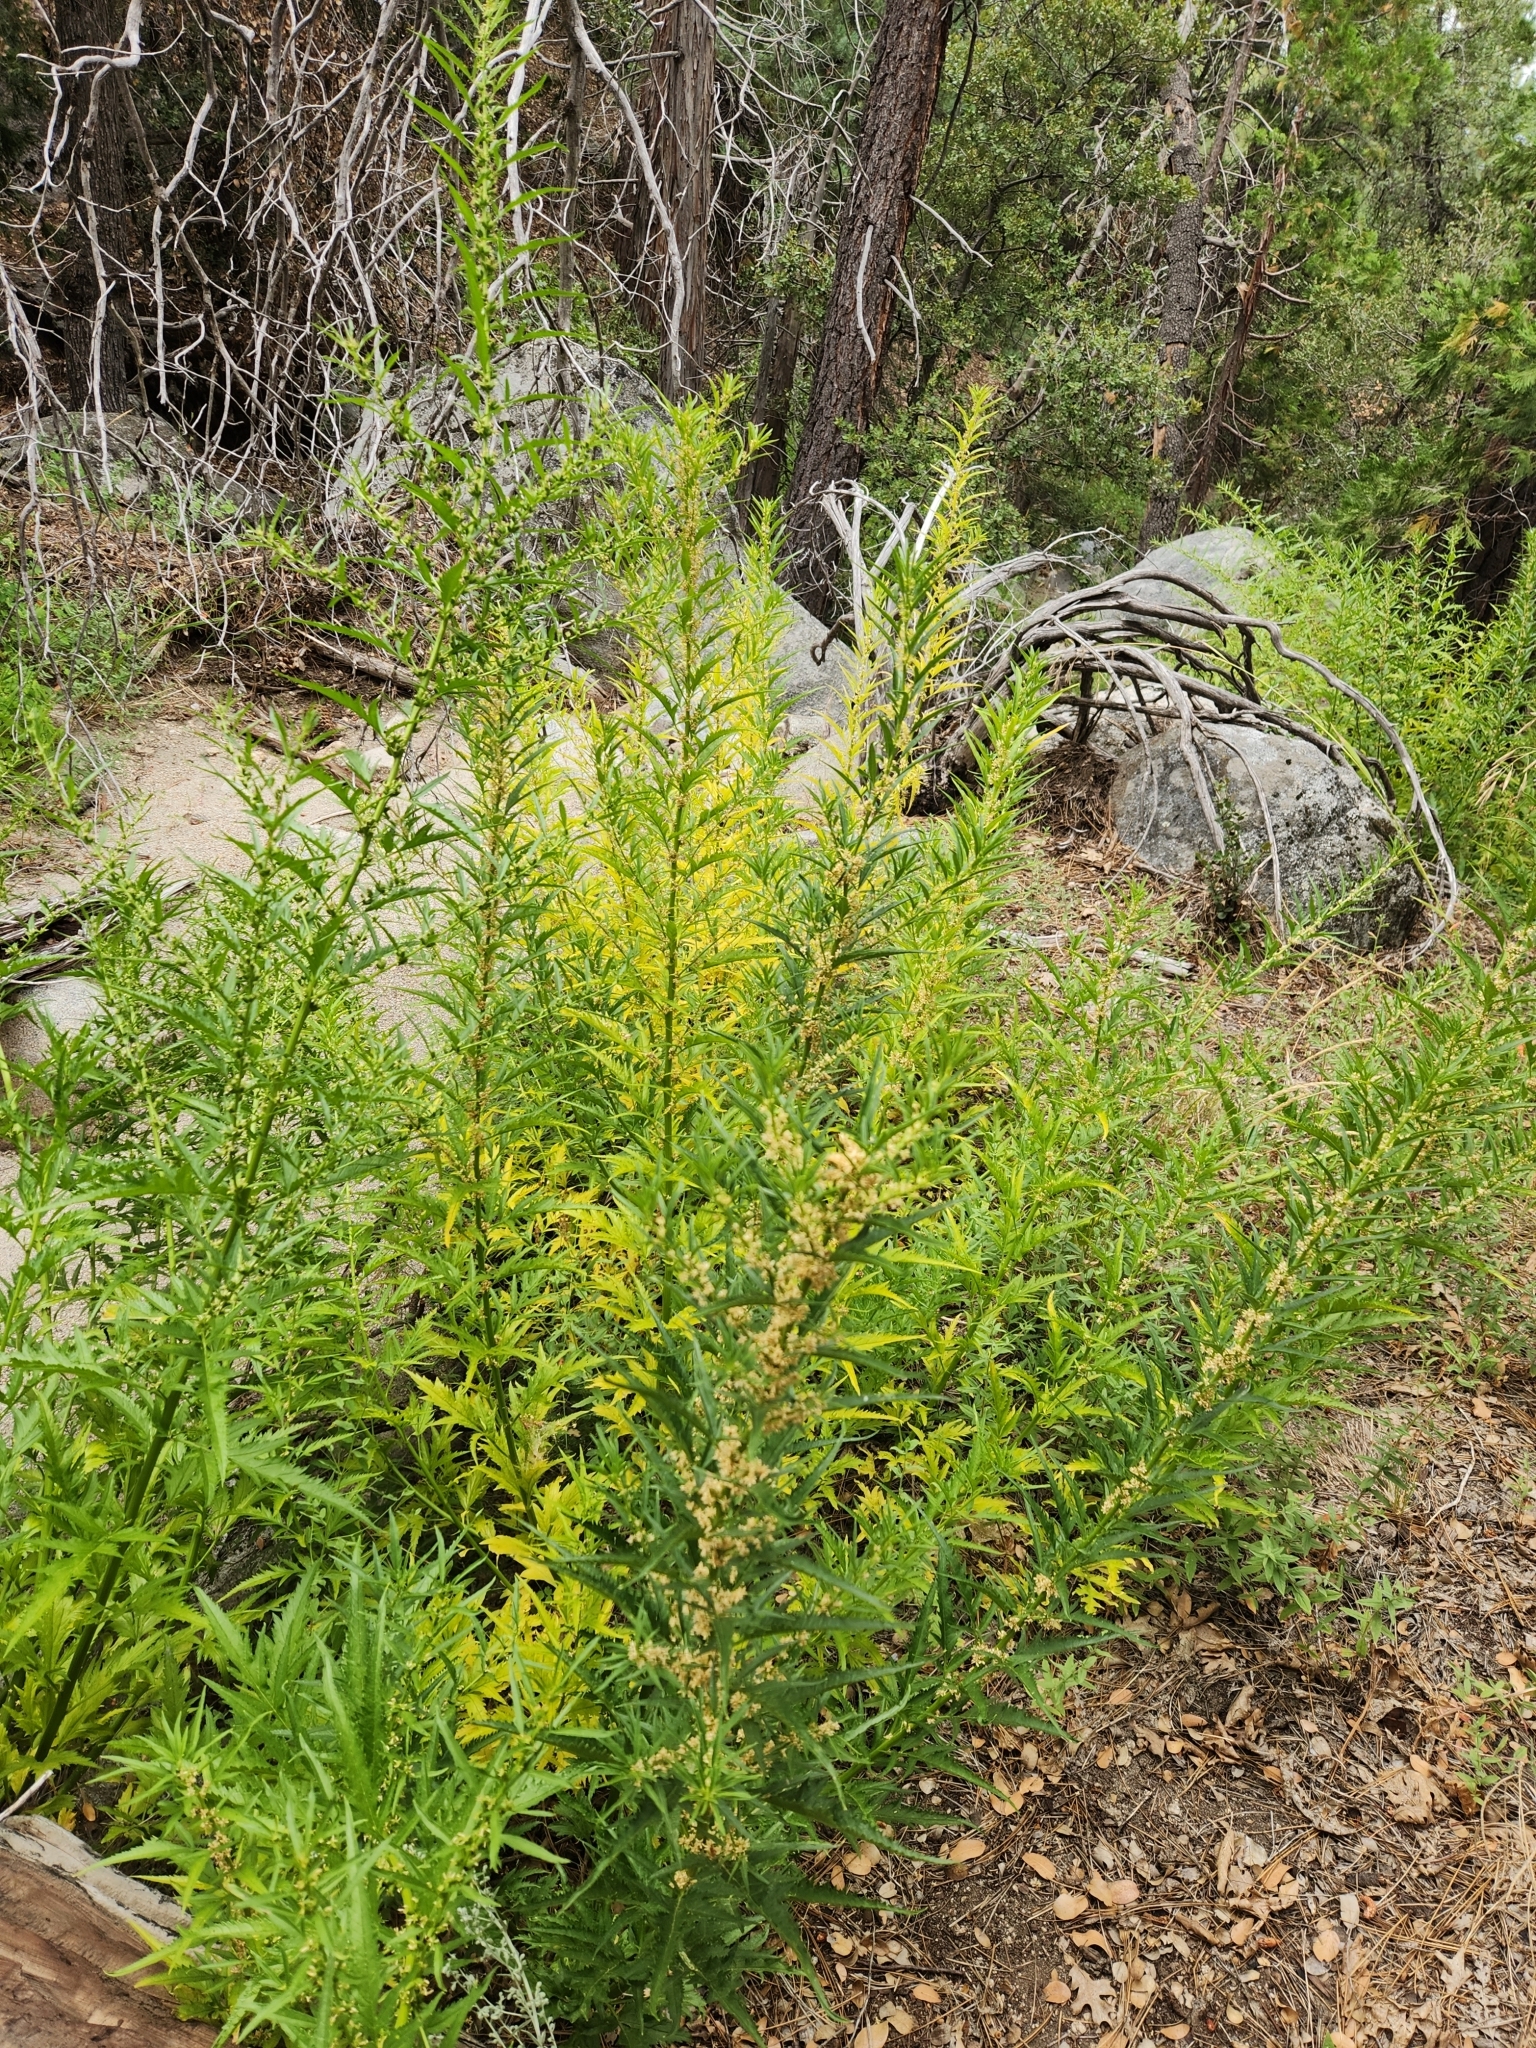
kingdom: Plantae
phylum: Tracheophyta
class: Magnoliopsida
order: Cucurbitales
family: Datiscaceae
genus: Datisca
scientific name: Datisca glomerata
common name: Durango-root
